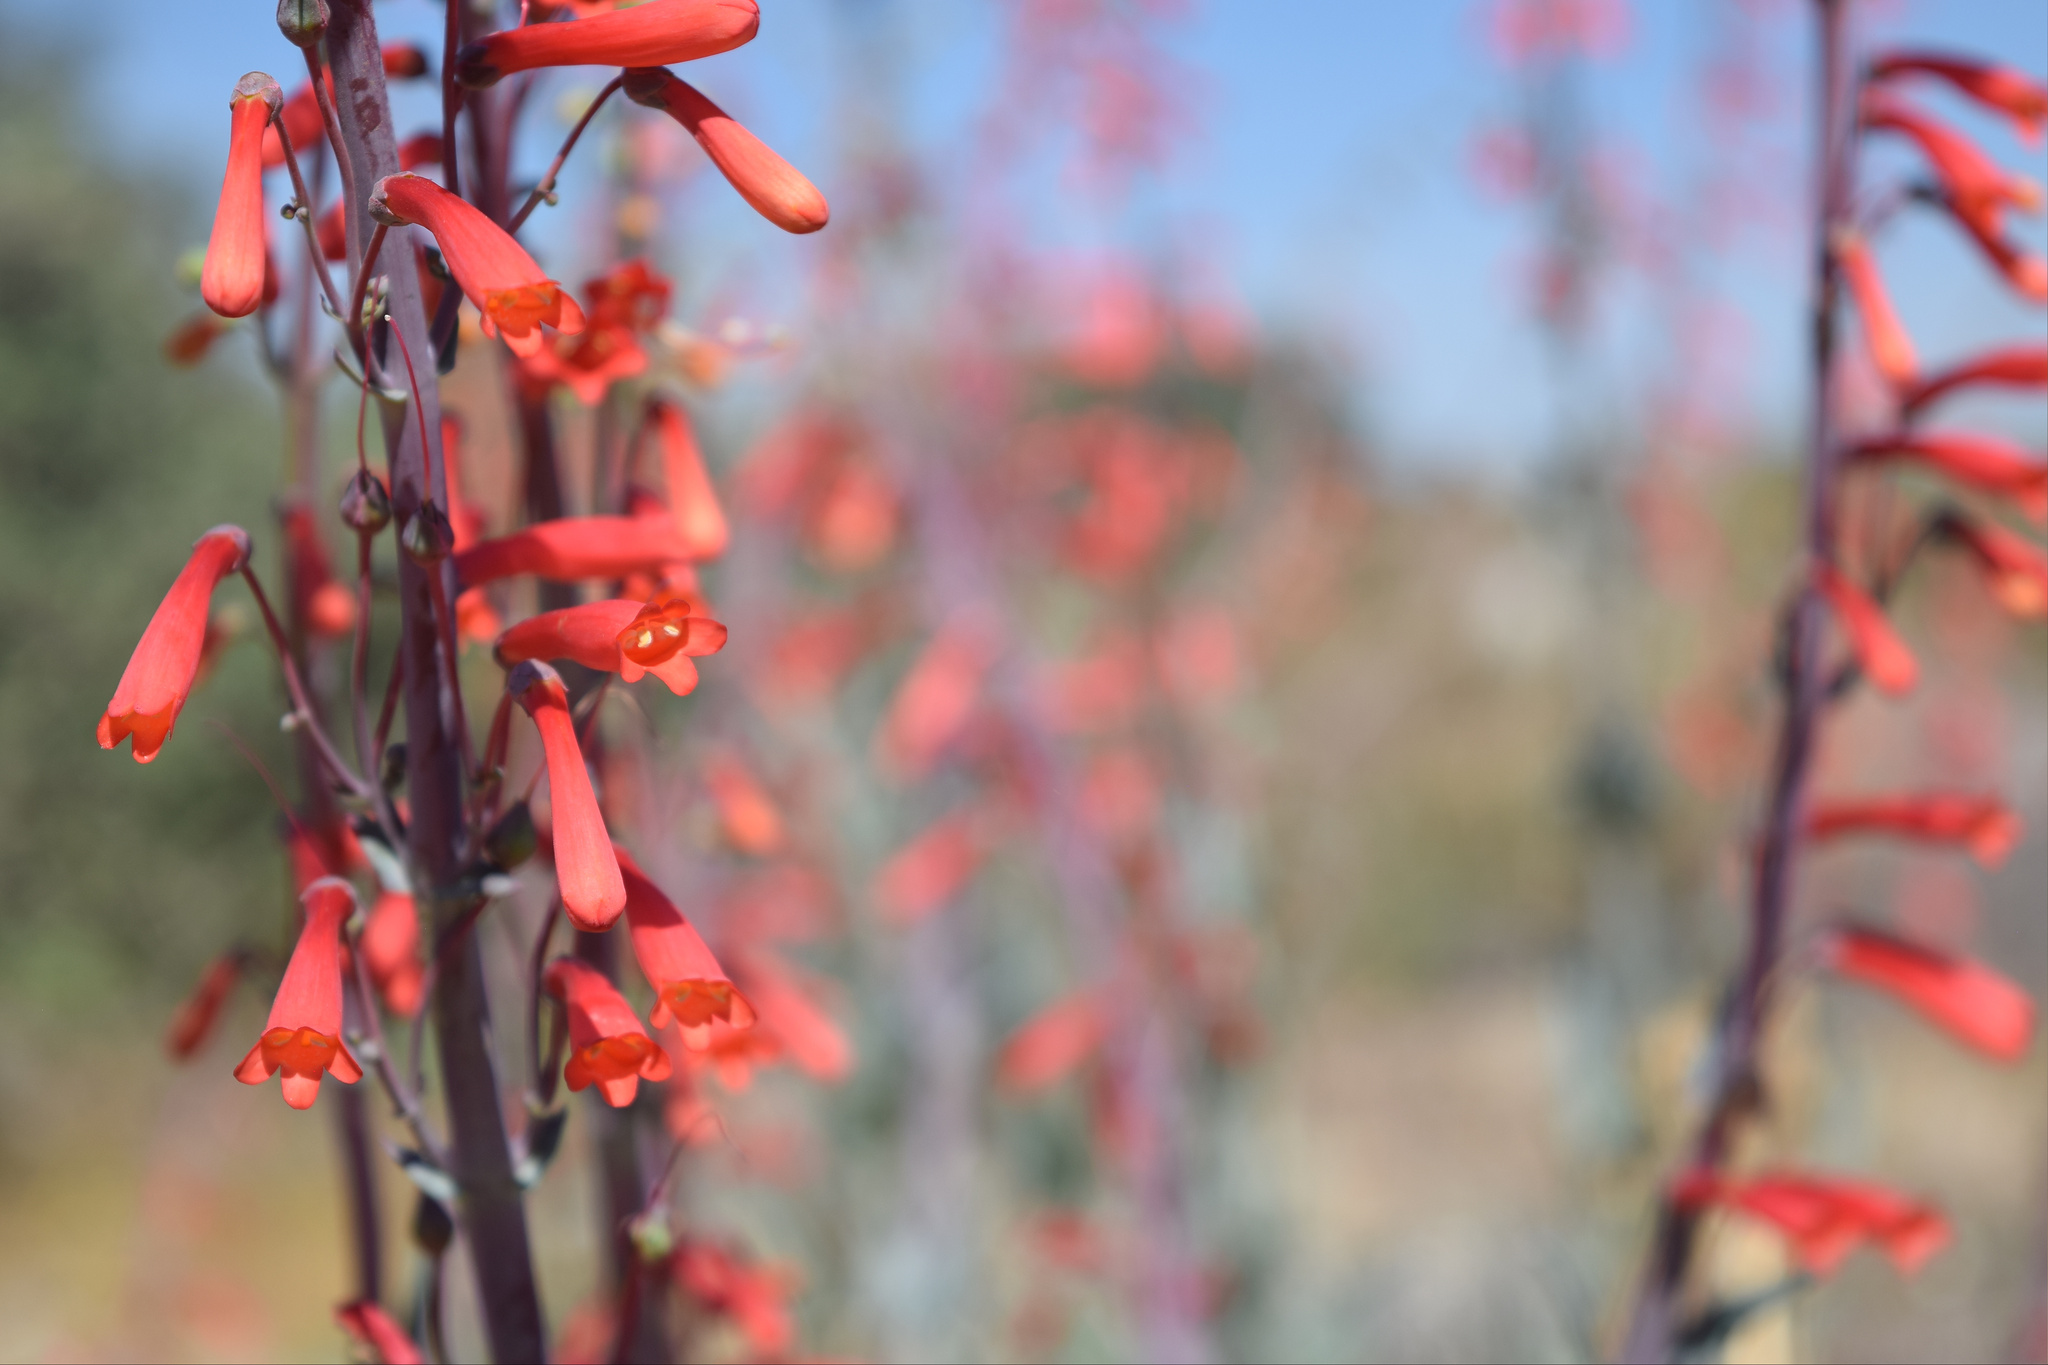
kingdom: Plantae
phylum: Tracheophyta
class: Magnoliopsida
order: Lamiales
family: Plantaginaceae
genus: Penstemon
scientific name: Penstemon centranthifolius
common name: Scarlet bugler
